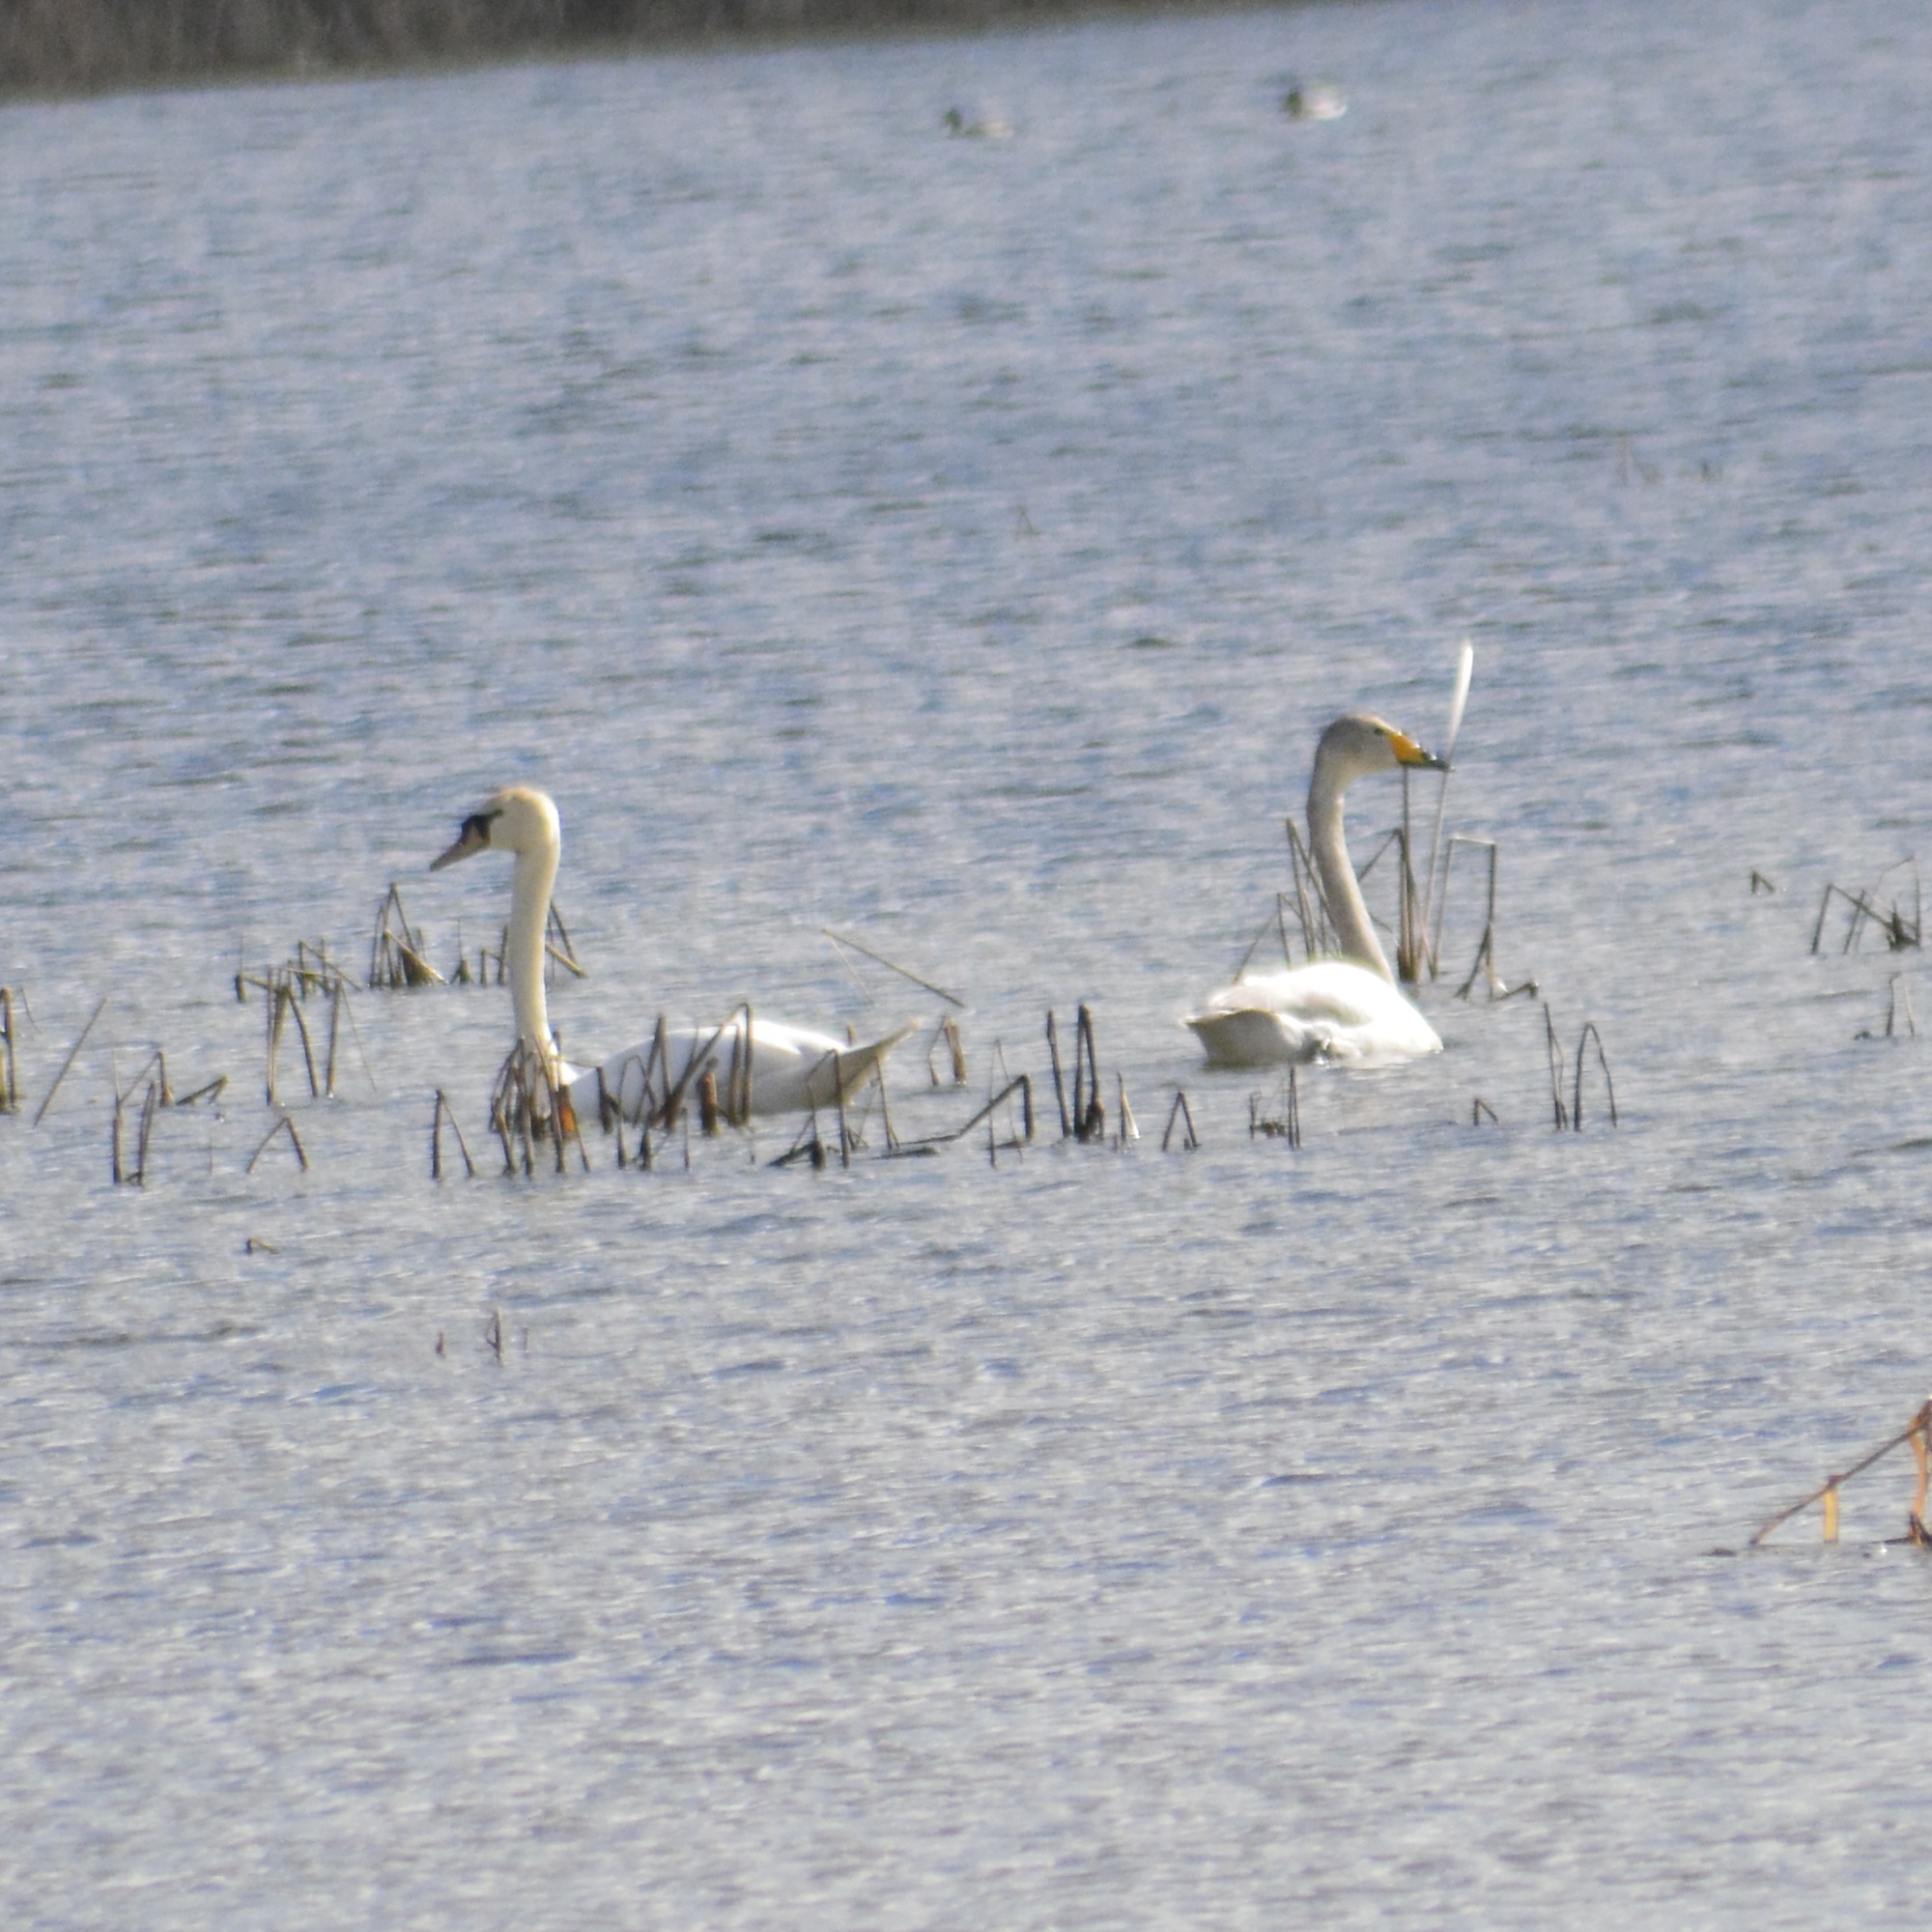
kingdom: Animalia
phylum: Chordata
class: Aves
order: Anseriformes
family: Anatidae
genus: Cygnus
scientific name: Cygnus cygnus
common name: Whooper swan
